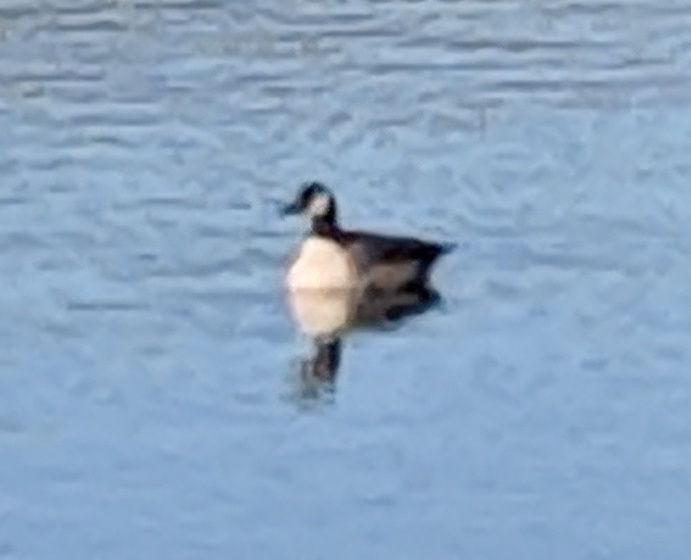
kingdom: Animalia
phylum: Chordata
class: Aves
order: Anseriformes
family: Anatidae
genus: Branta
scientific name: Branta
